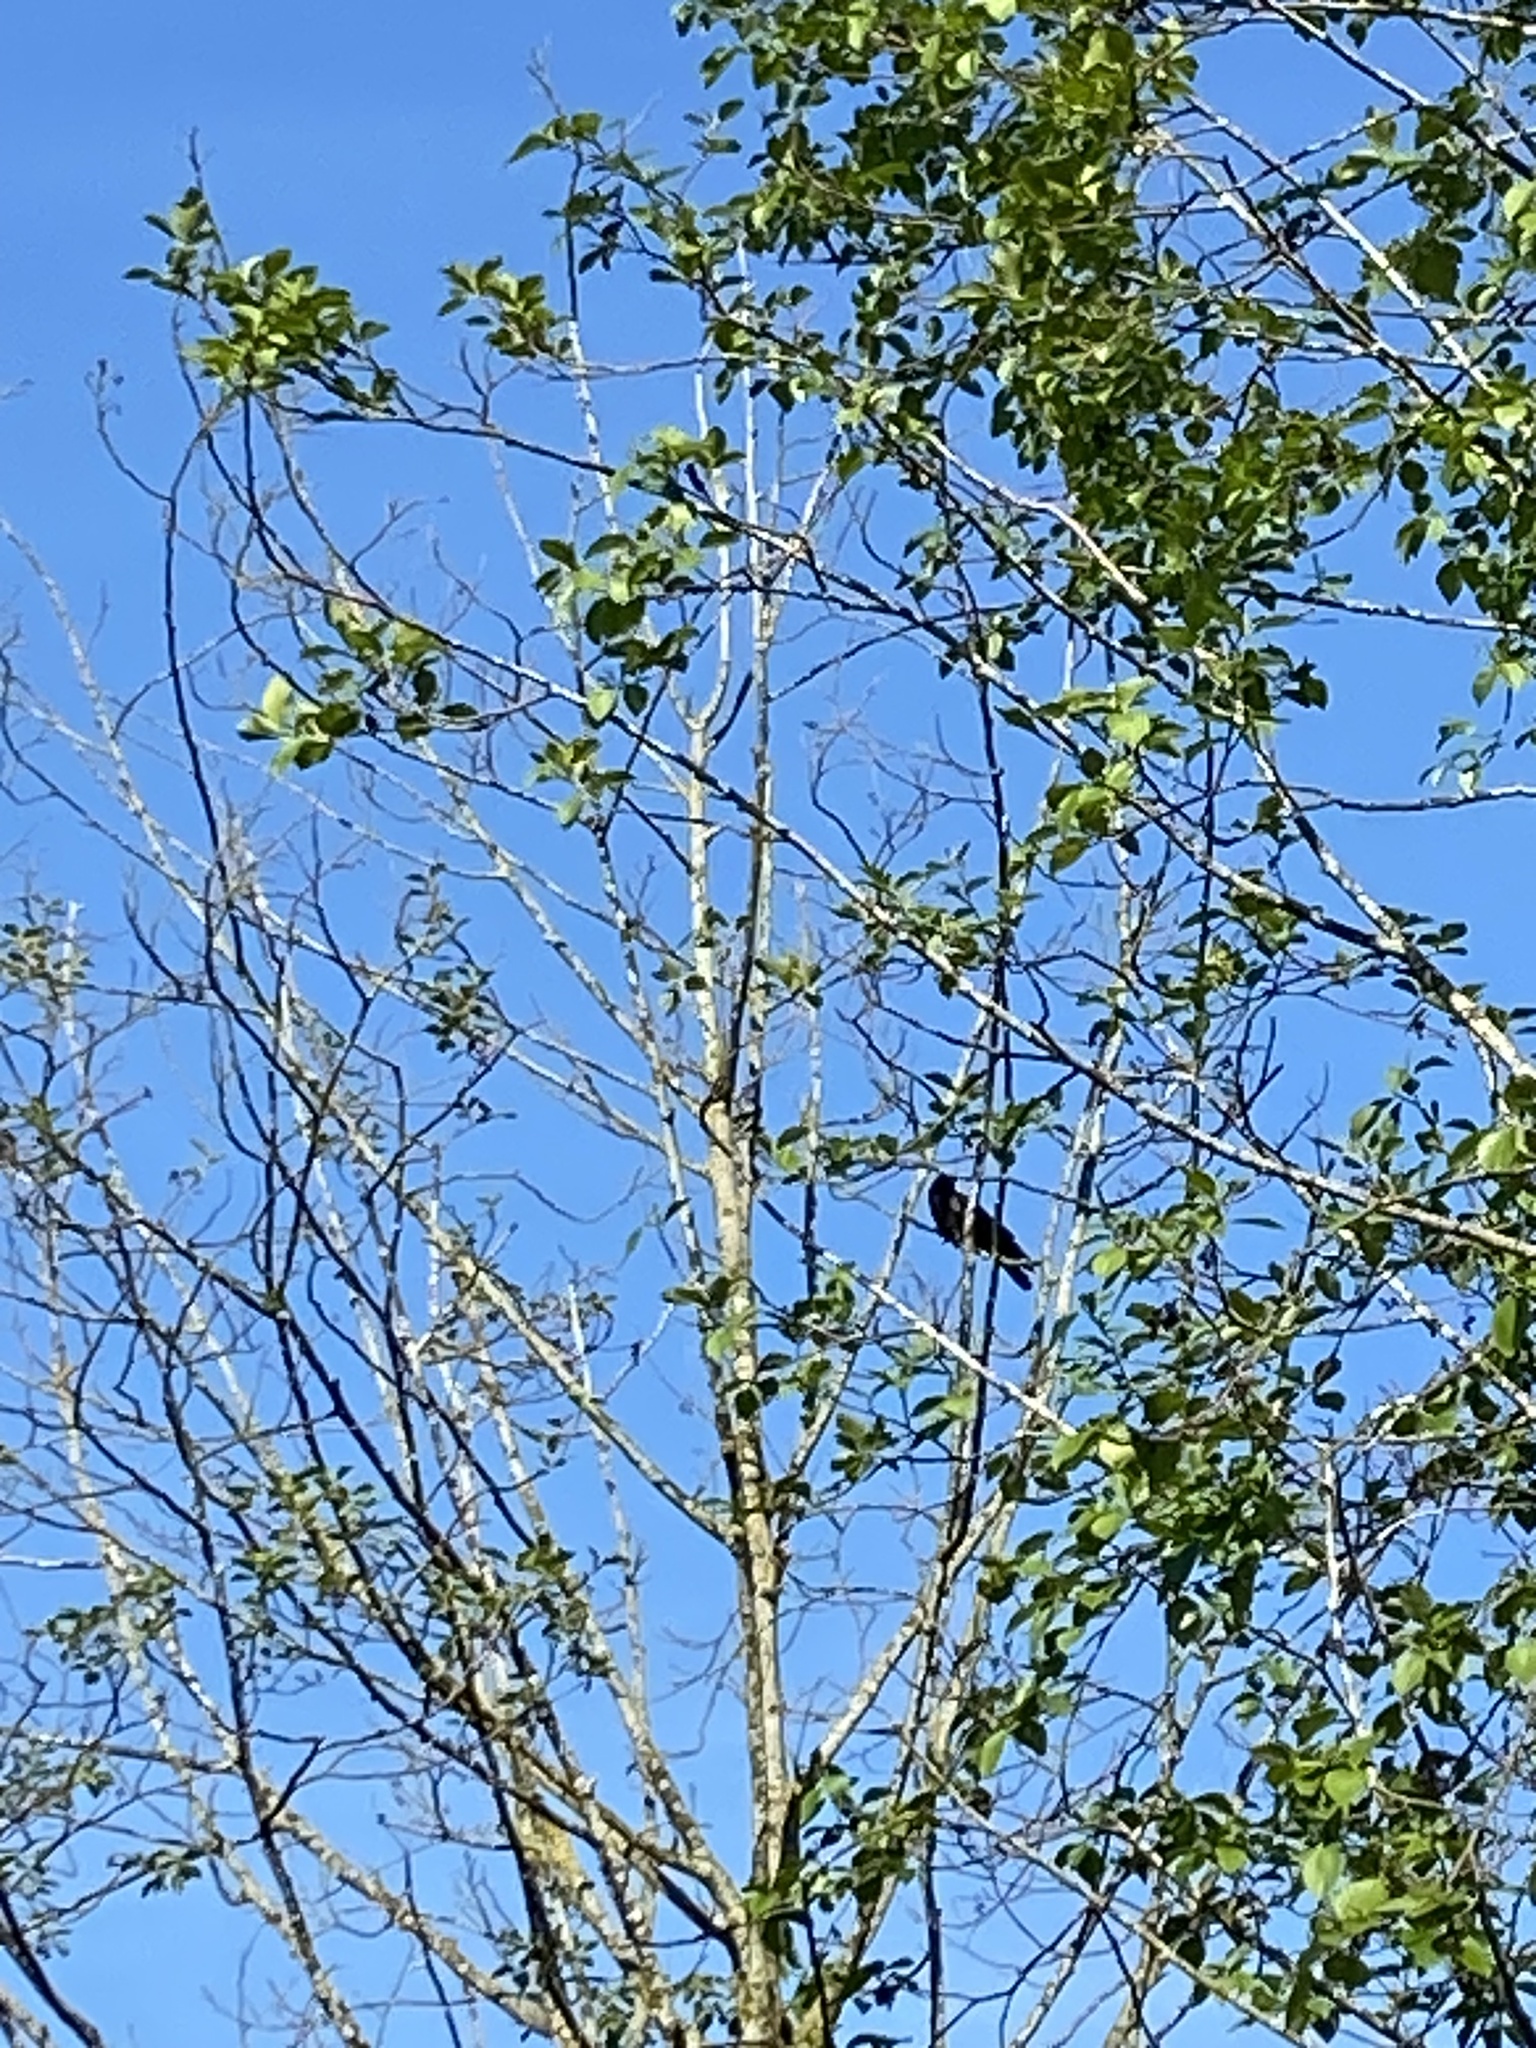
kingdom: Animalia
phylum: Chordata
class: Aves
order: Passeriformes
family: Corvidae
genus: Corvus
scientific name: Corvus brachyrhynchos
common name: American crow
